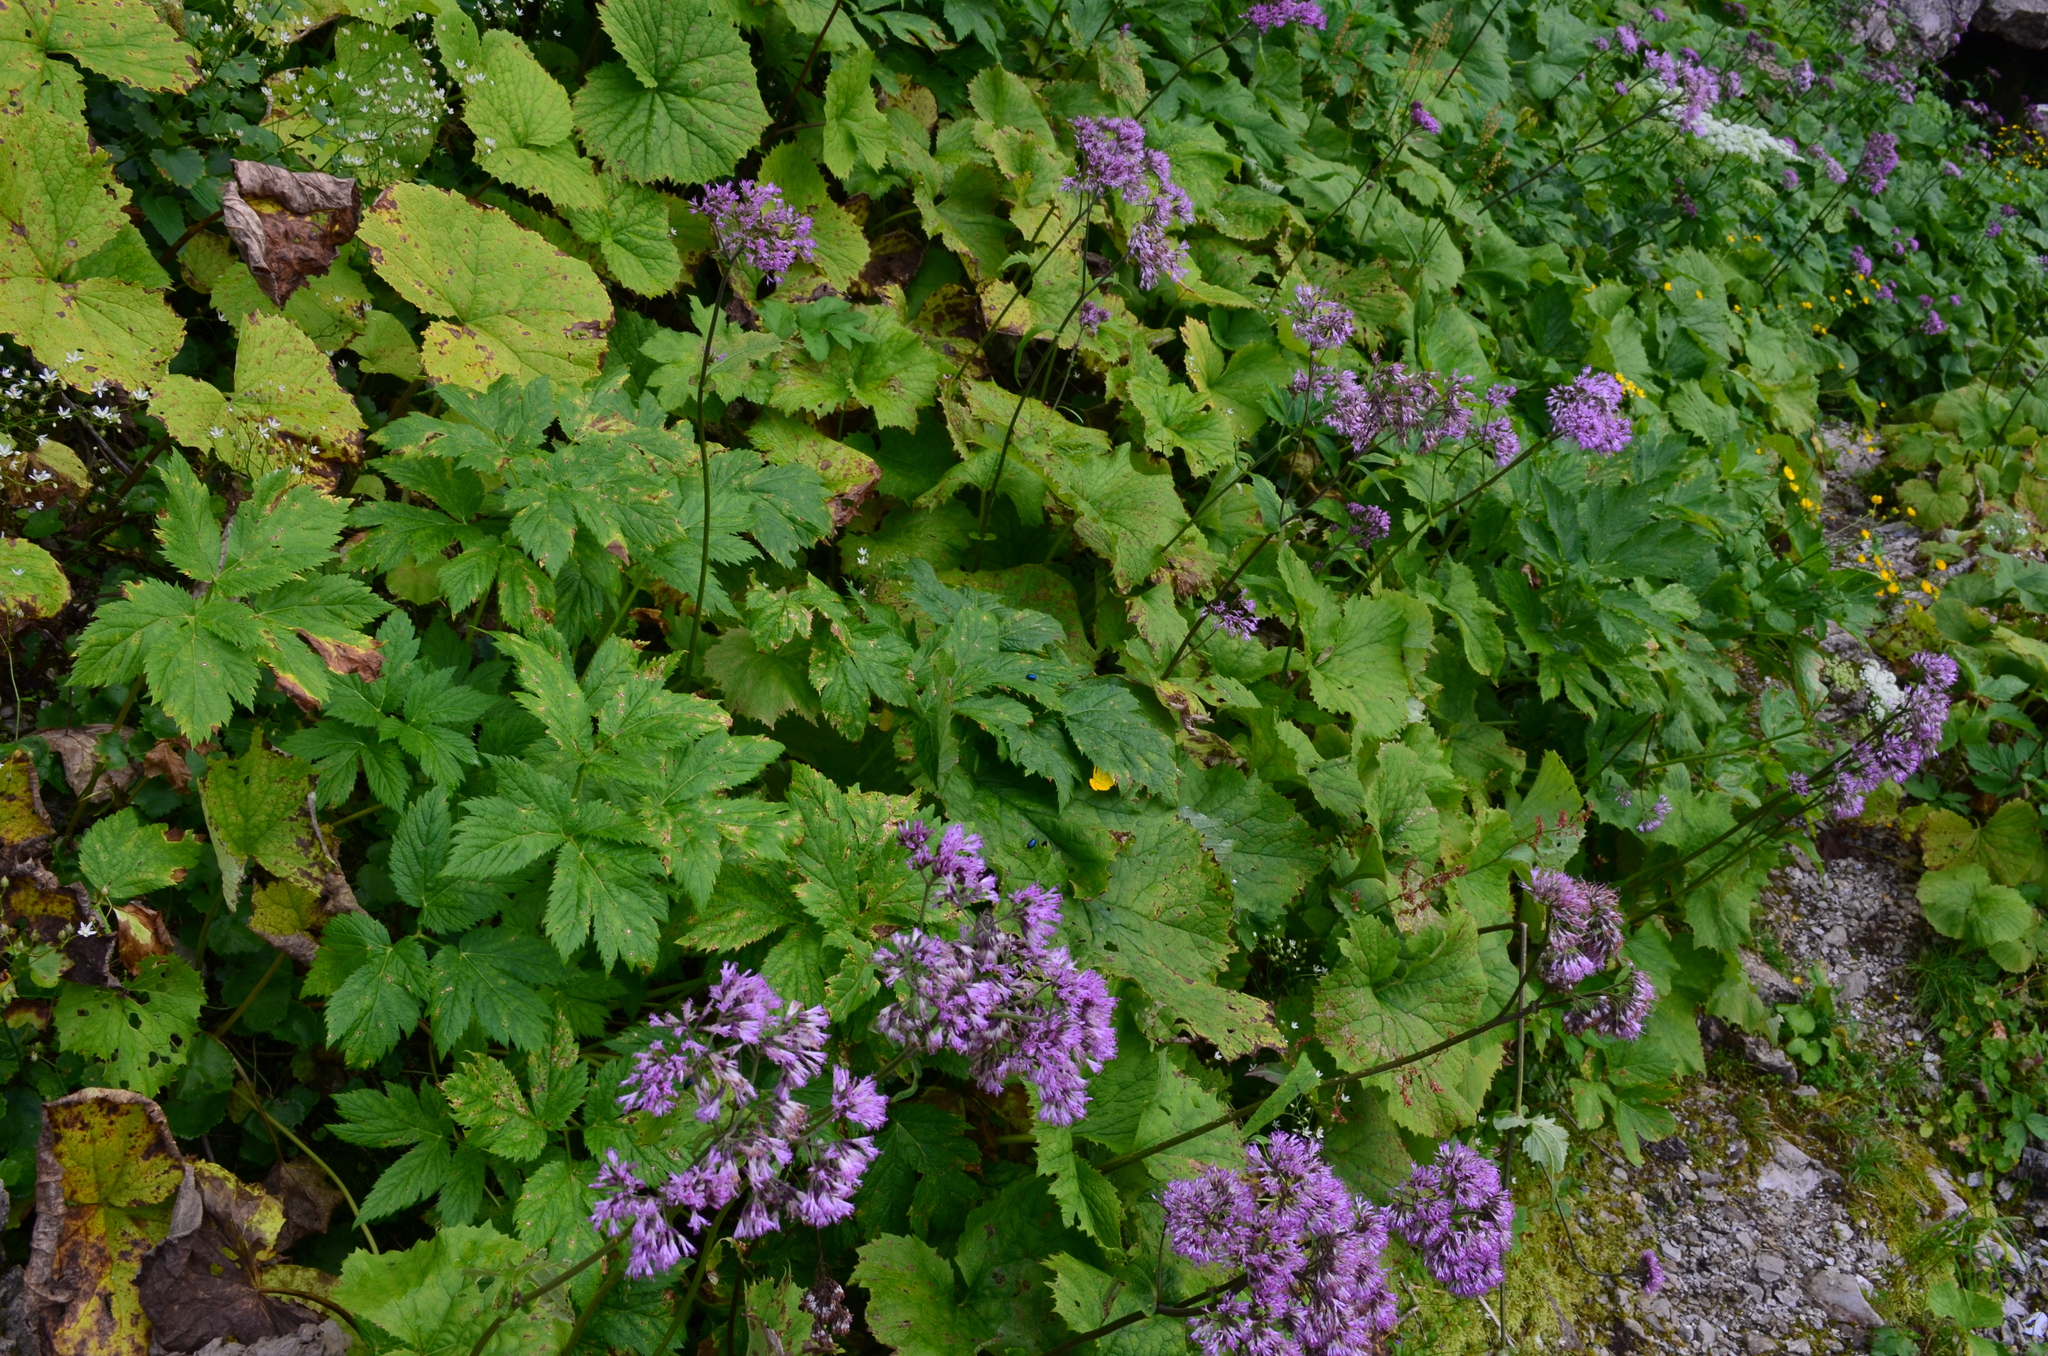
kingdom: Plantae
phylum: Tracheophyta
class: Magnoliopsida
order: Asterales
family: Asteraceae
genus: Adenostyles
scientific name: Adenostyles alliariae
